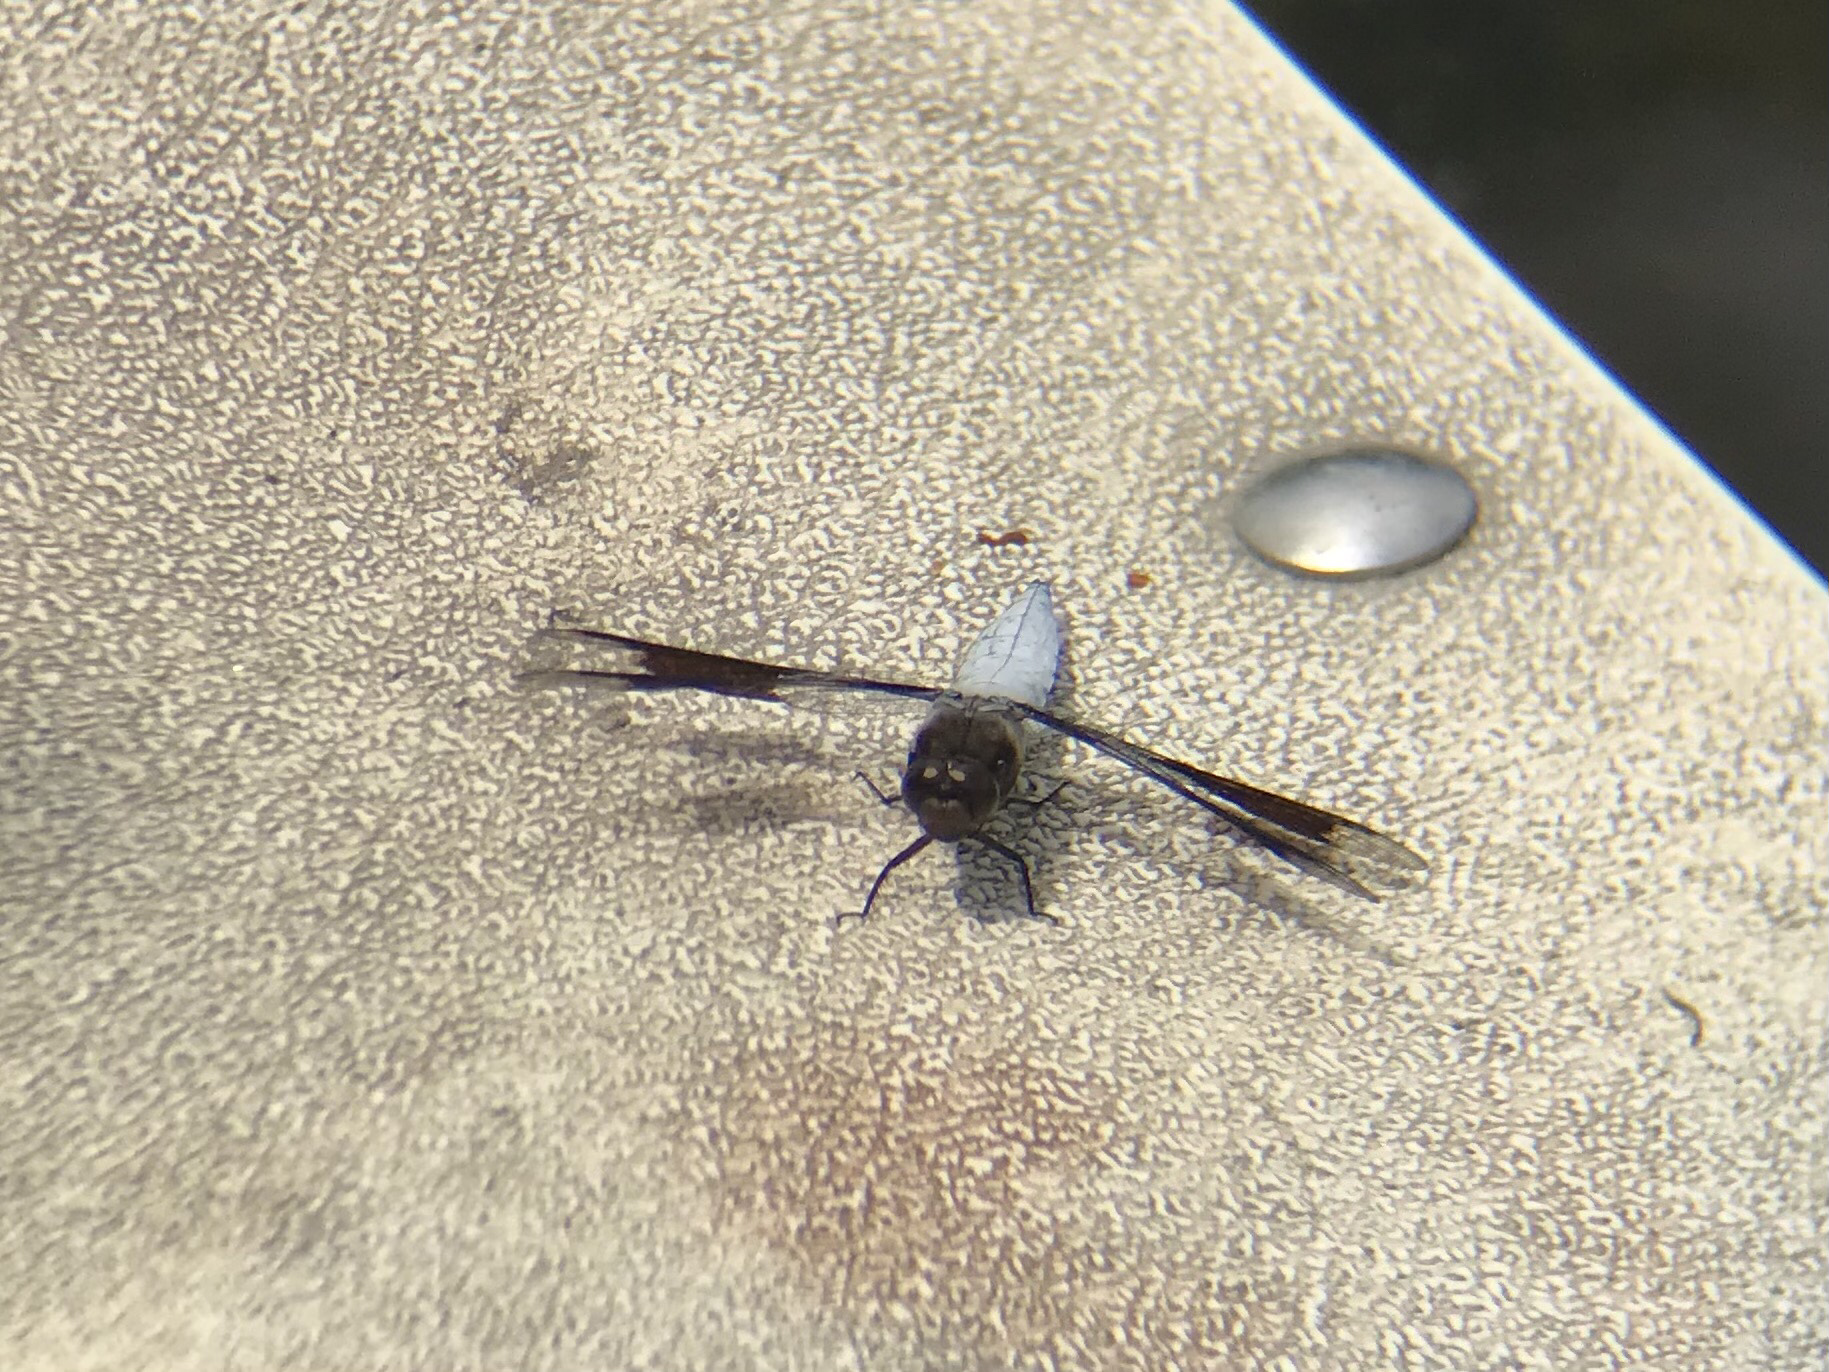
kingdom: Animalia
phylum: Arthropoda
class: Insecta
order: Odonata
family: Libellulidae
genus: Plathemis
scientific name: Plathemis lydia
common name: Common whitetail
